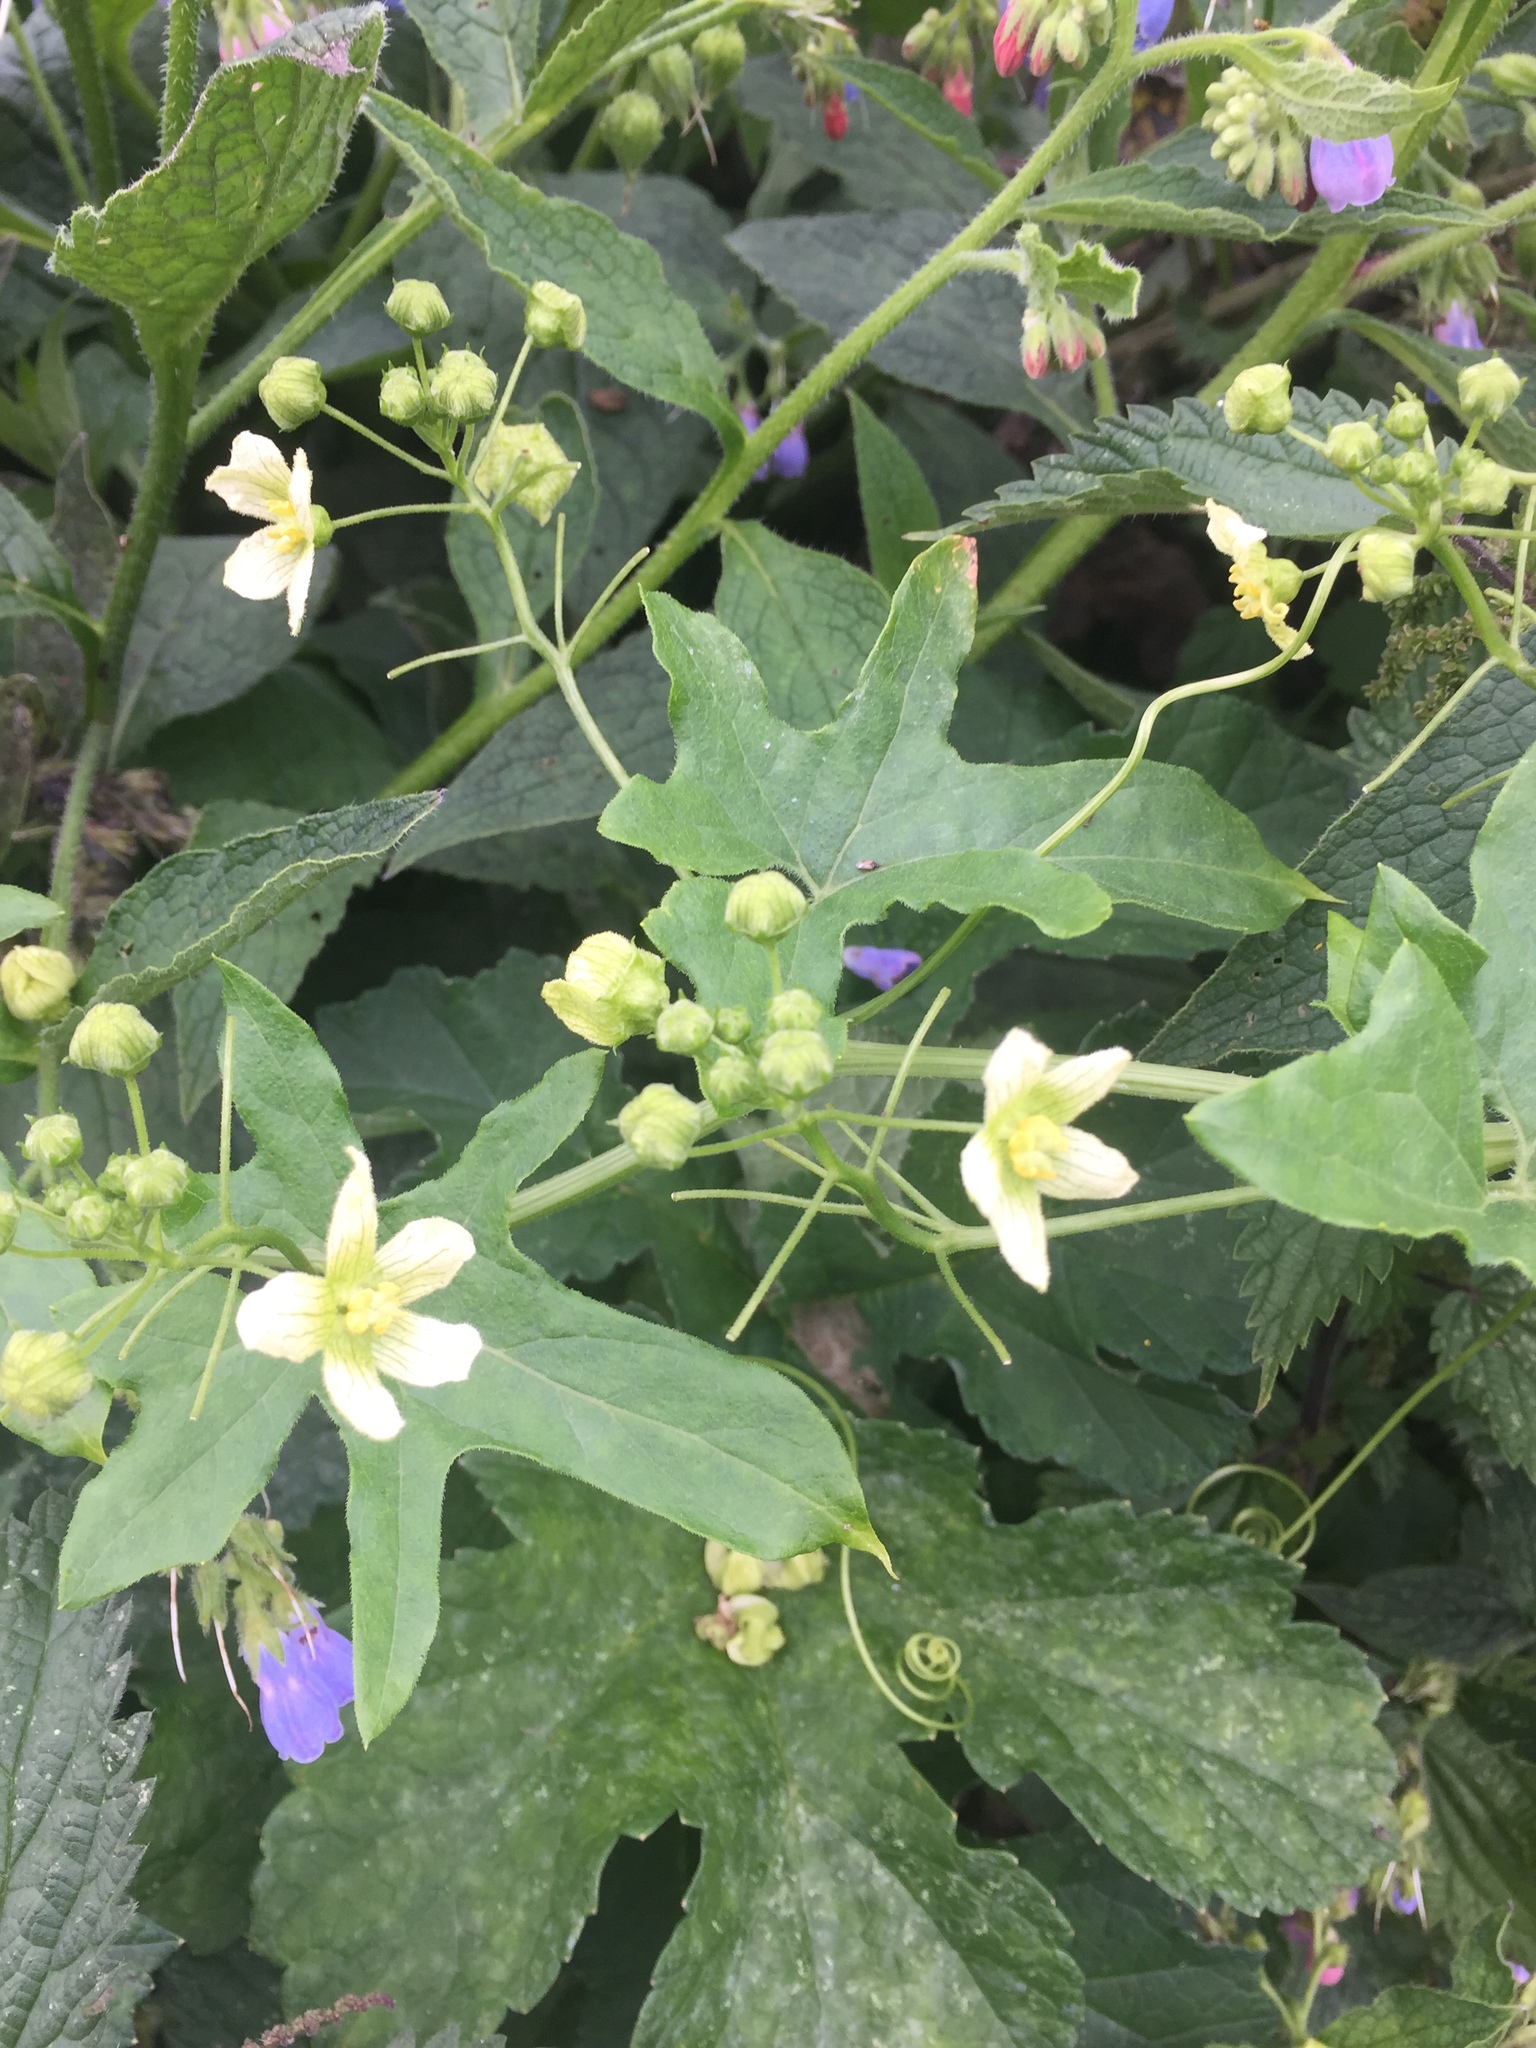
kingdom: Plantae
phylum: Tracheophyta
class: Magnoliopsida
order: Cucurbitales
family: Cucurbitaceae
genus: Bryonia
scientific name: Bryonia cretica
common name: Cretan bryony
